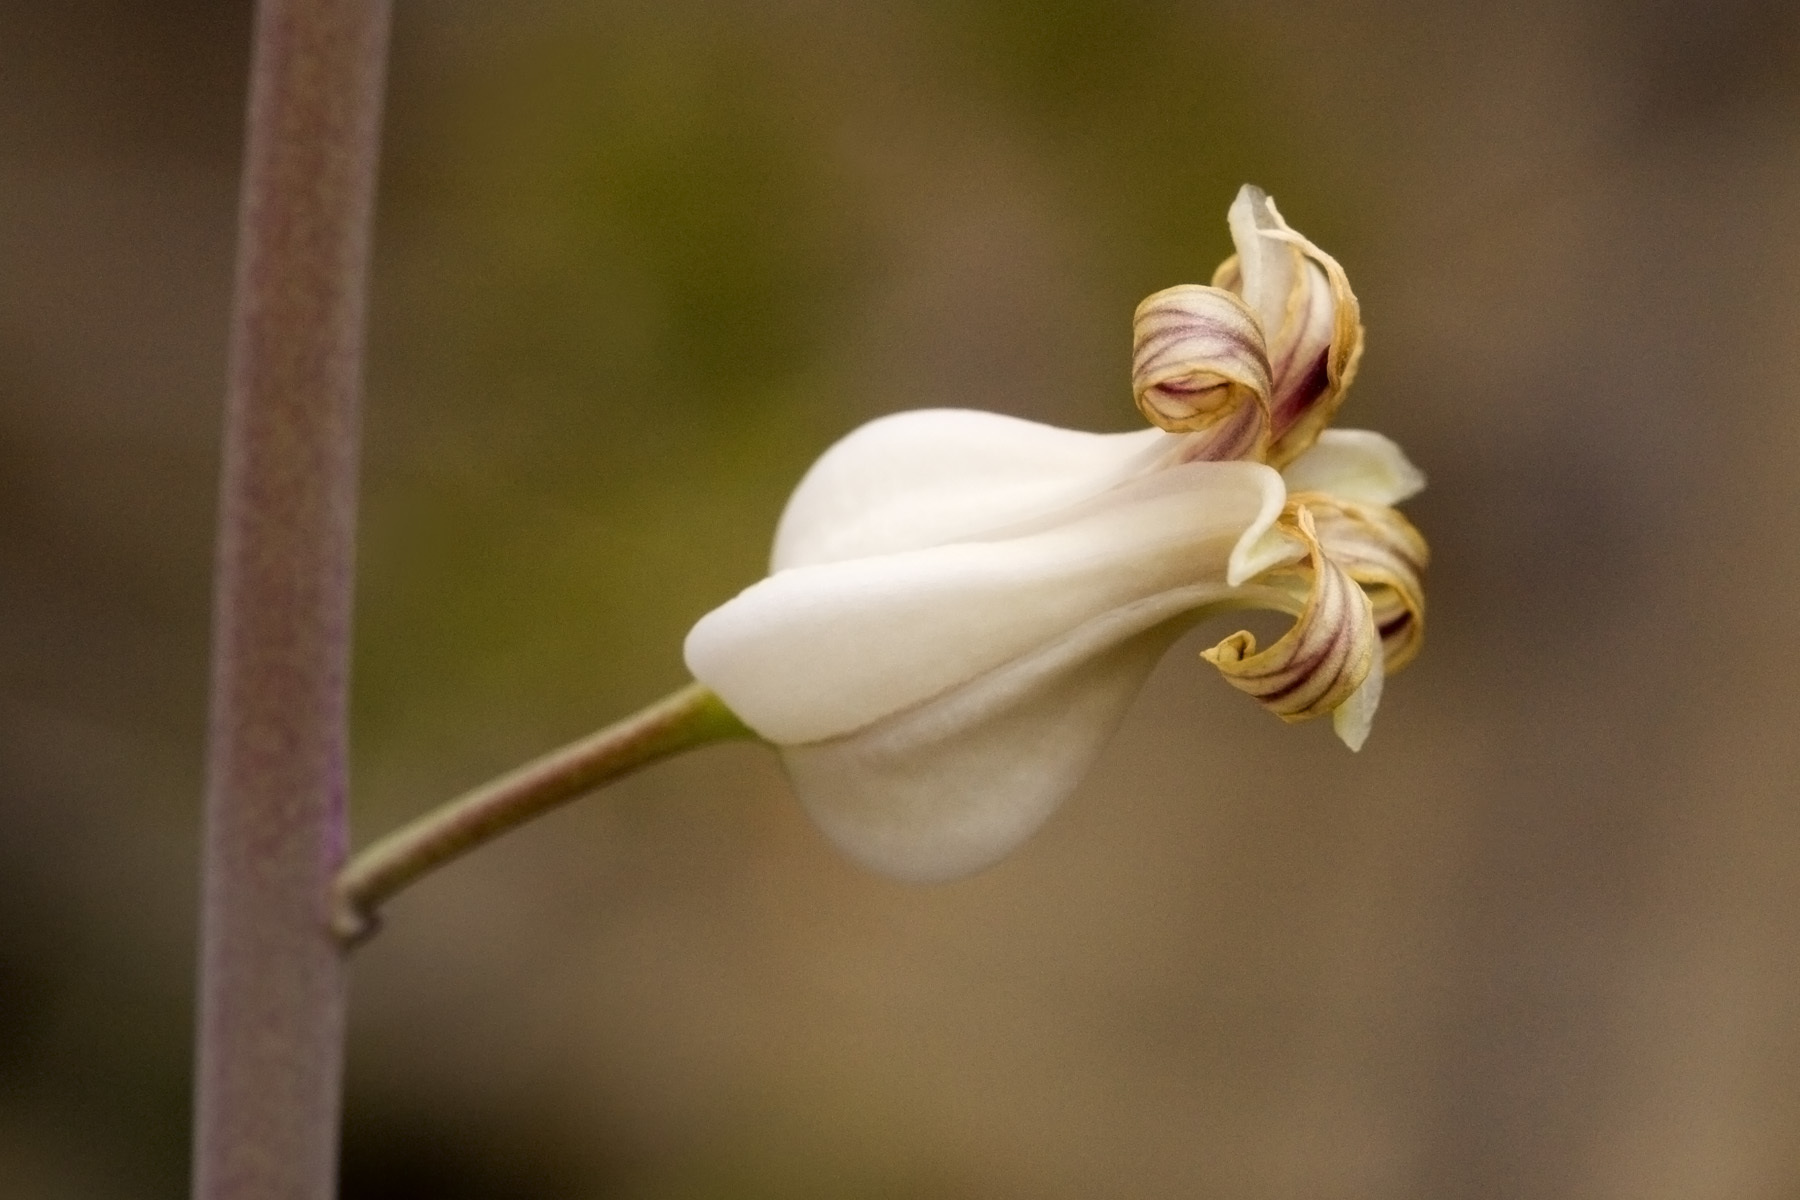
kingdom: Plantae
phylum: Tracheophyta
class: Magnoliopsida
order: Brassicales
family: Brassicaceae
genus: Streptanthus
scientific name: Streptanthus carinatus
